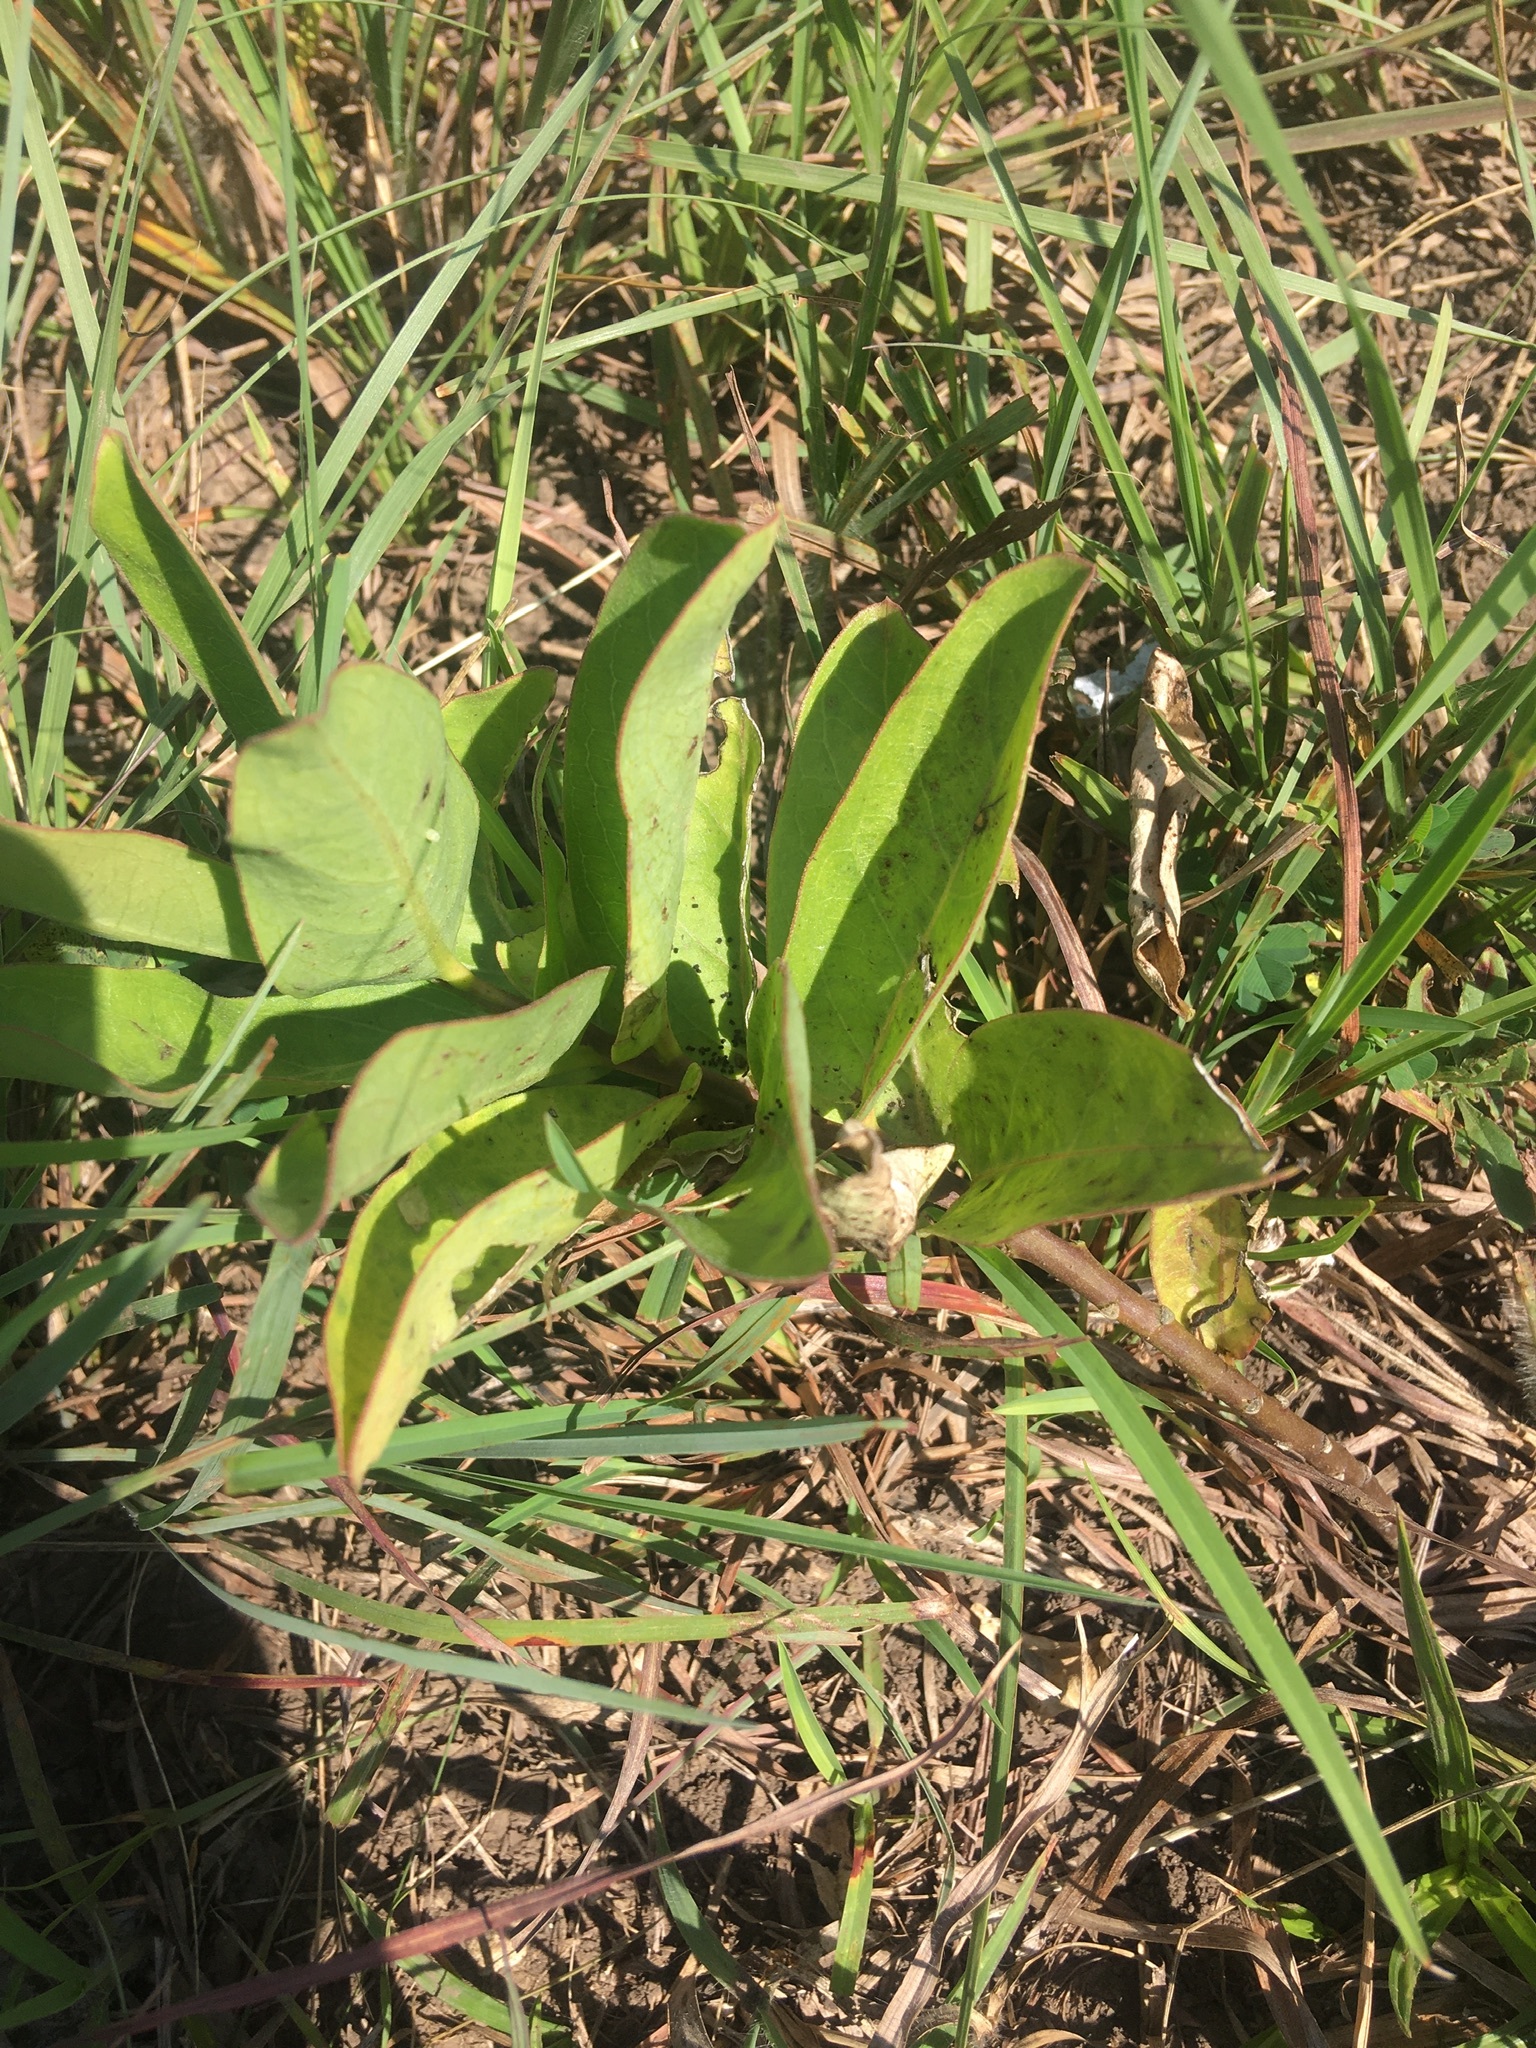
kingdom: Animalia
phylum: Arthropoda
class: Insecta
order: Lepidoptera
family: Nymphalidae
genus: Danaus
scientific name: Danaus plexippus
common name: Monarch
